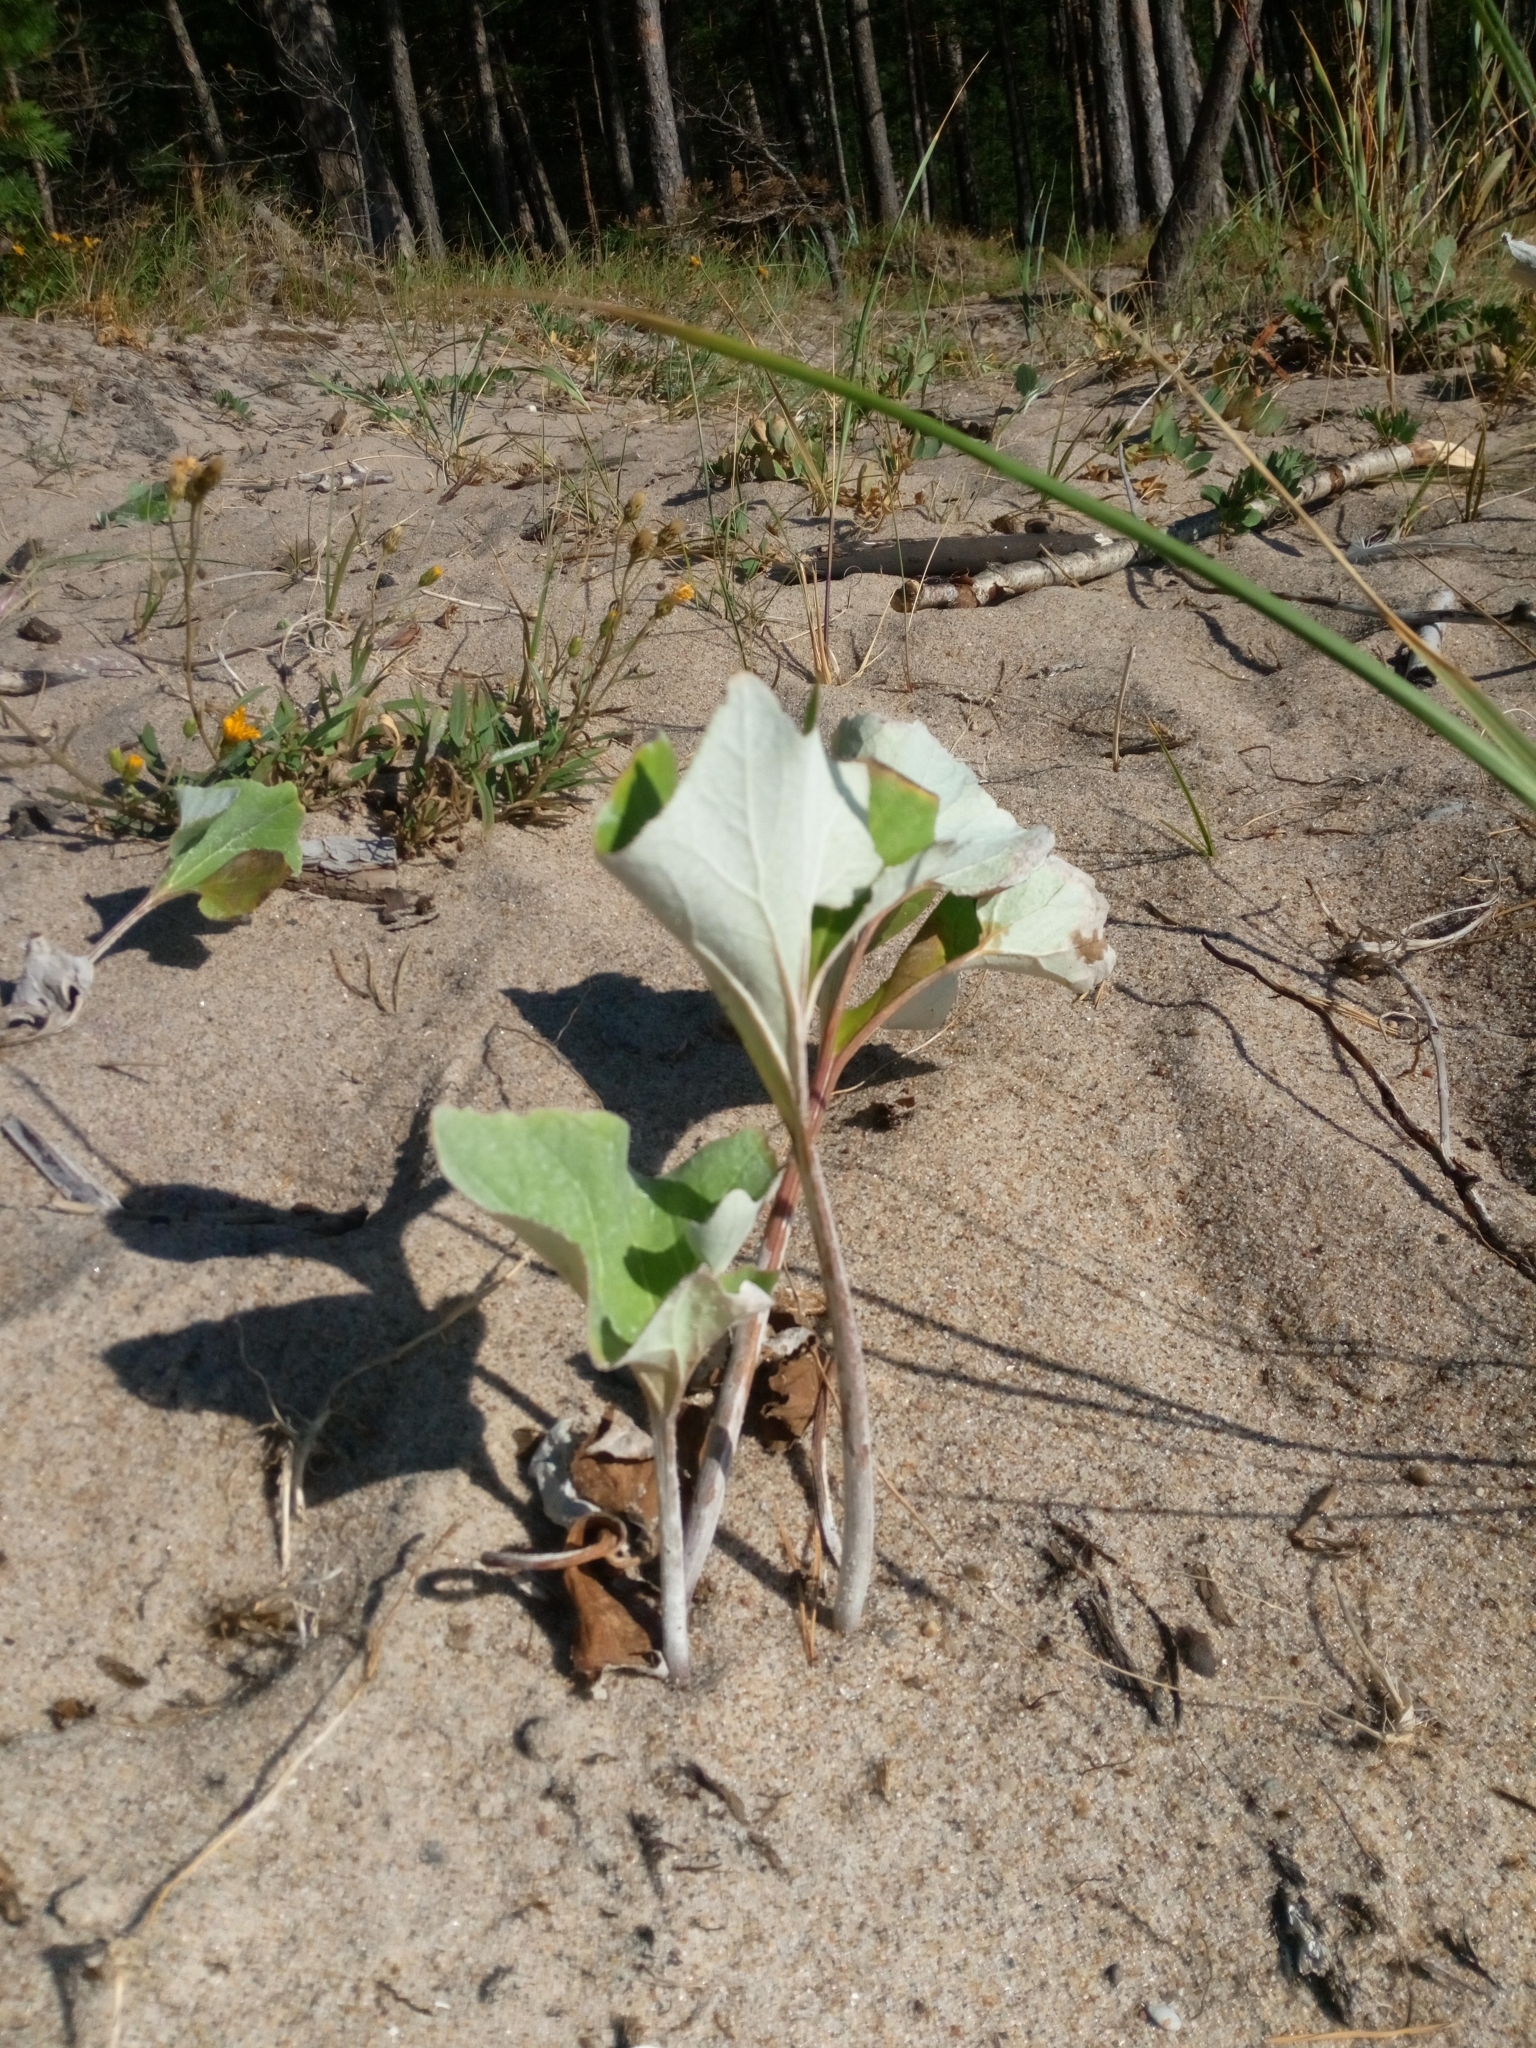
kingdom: Plantae
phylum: Tracheophyta
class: Magnoliopsida
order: Asterales
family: Asteraceae
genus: Petasites
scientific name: Petasites spurius
